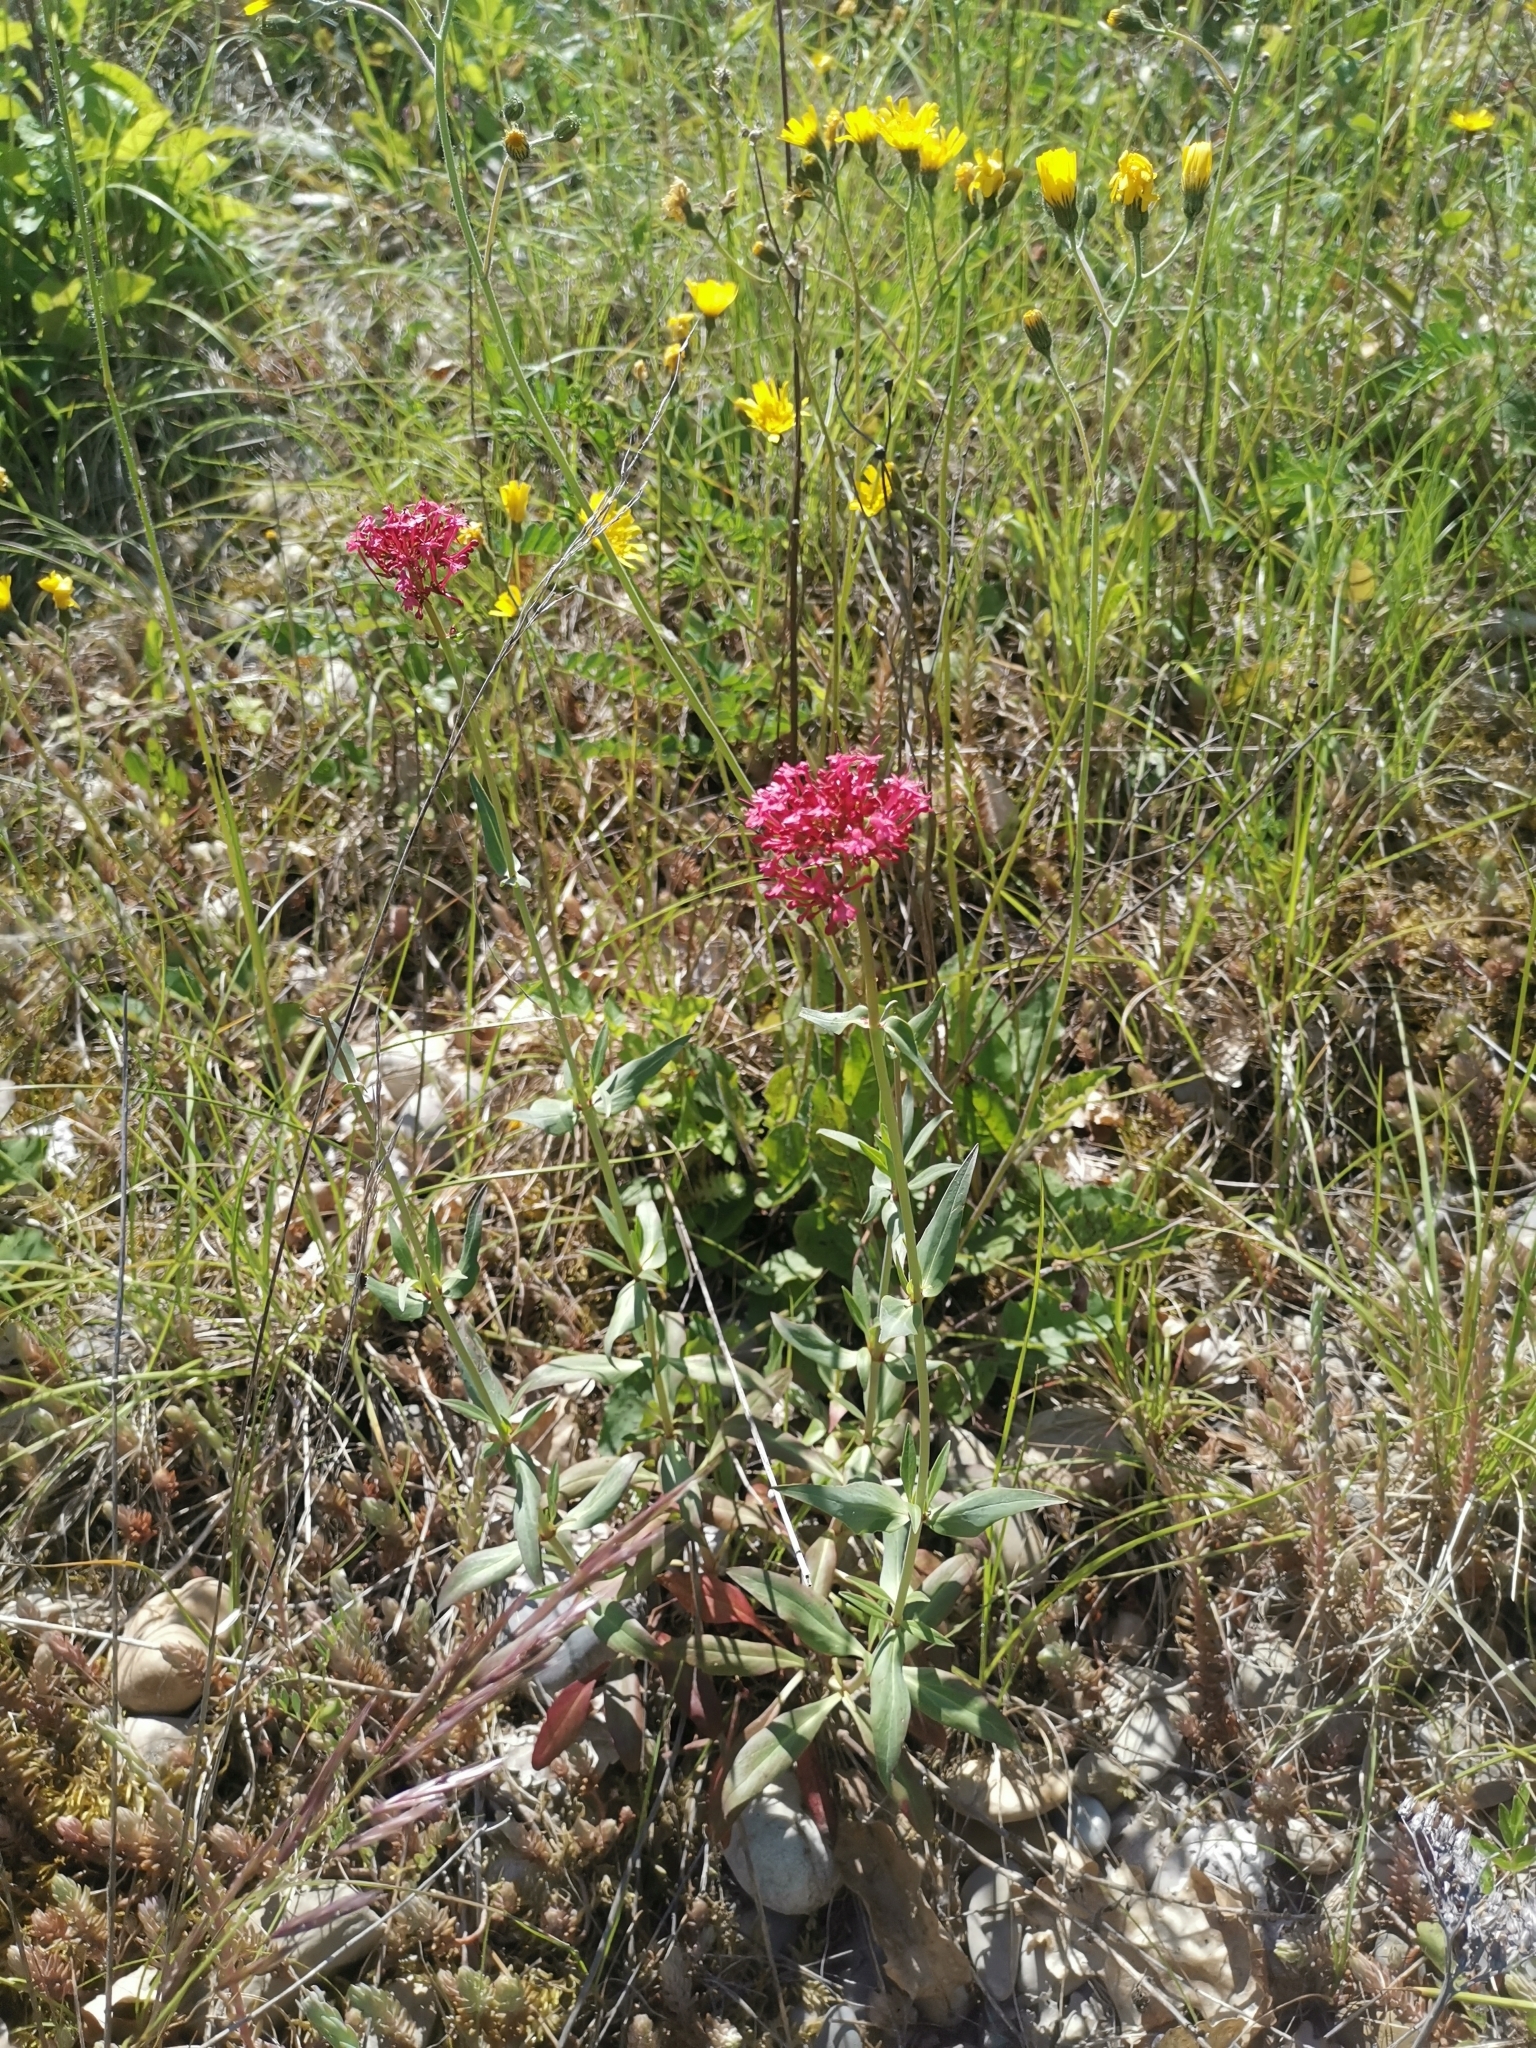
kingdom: Plantae
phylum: Tracheophyta
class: Magnoliopsida
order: Dipsacales
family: Caprifoliaceae
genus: Centranthus
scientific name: Centranthus ruber
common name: Red valerian
